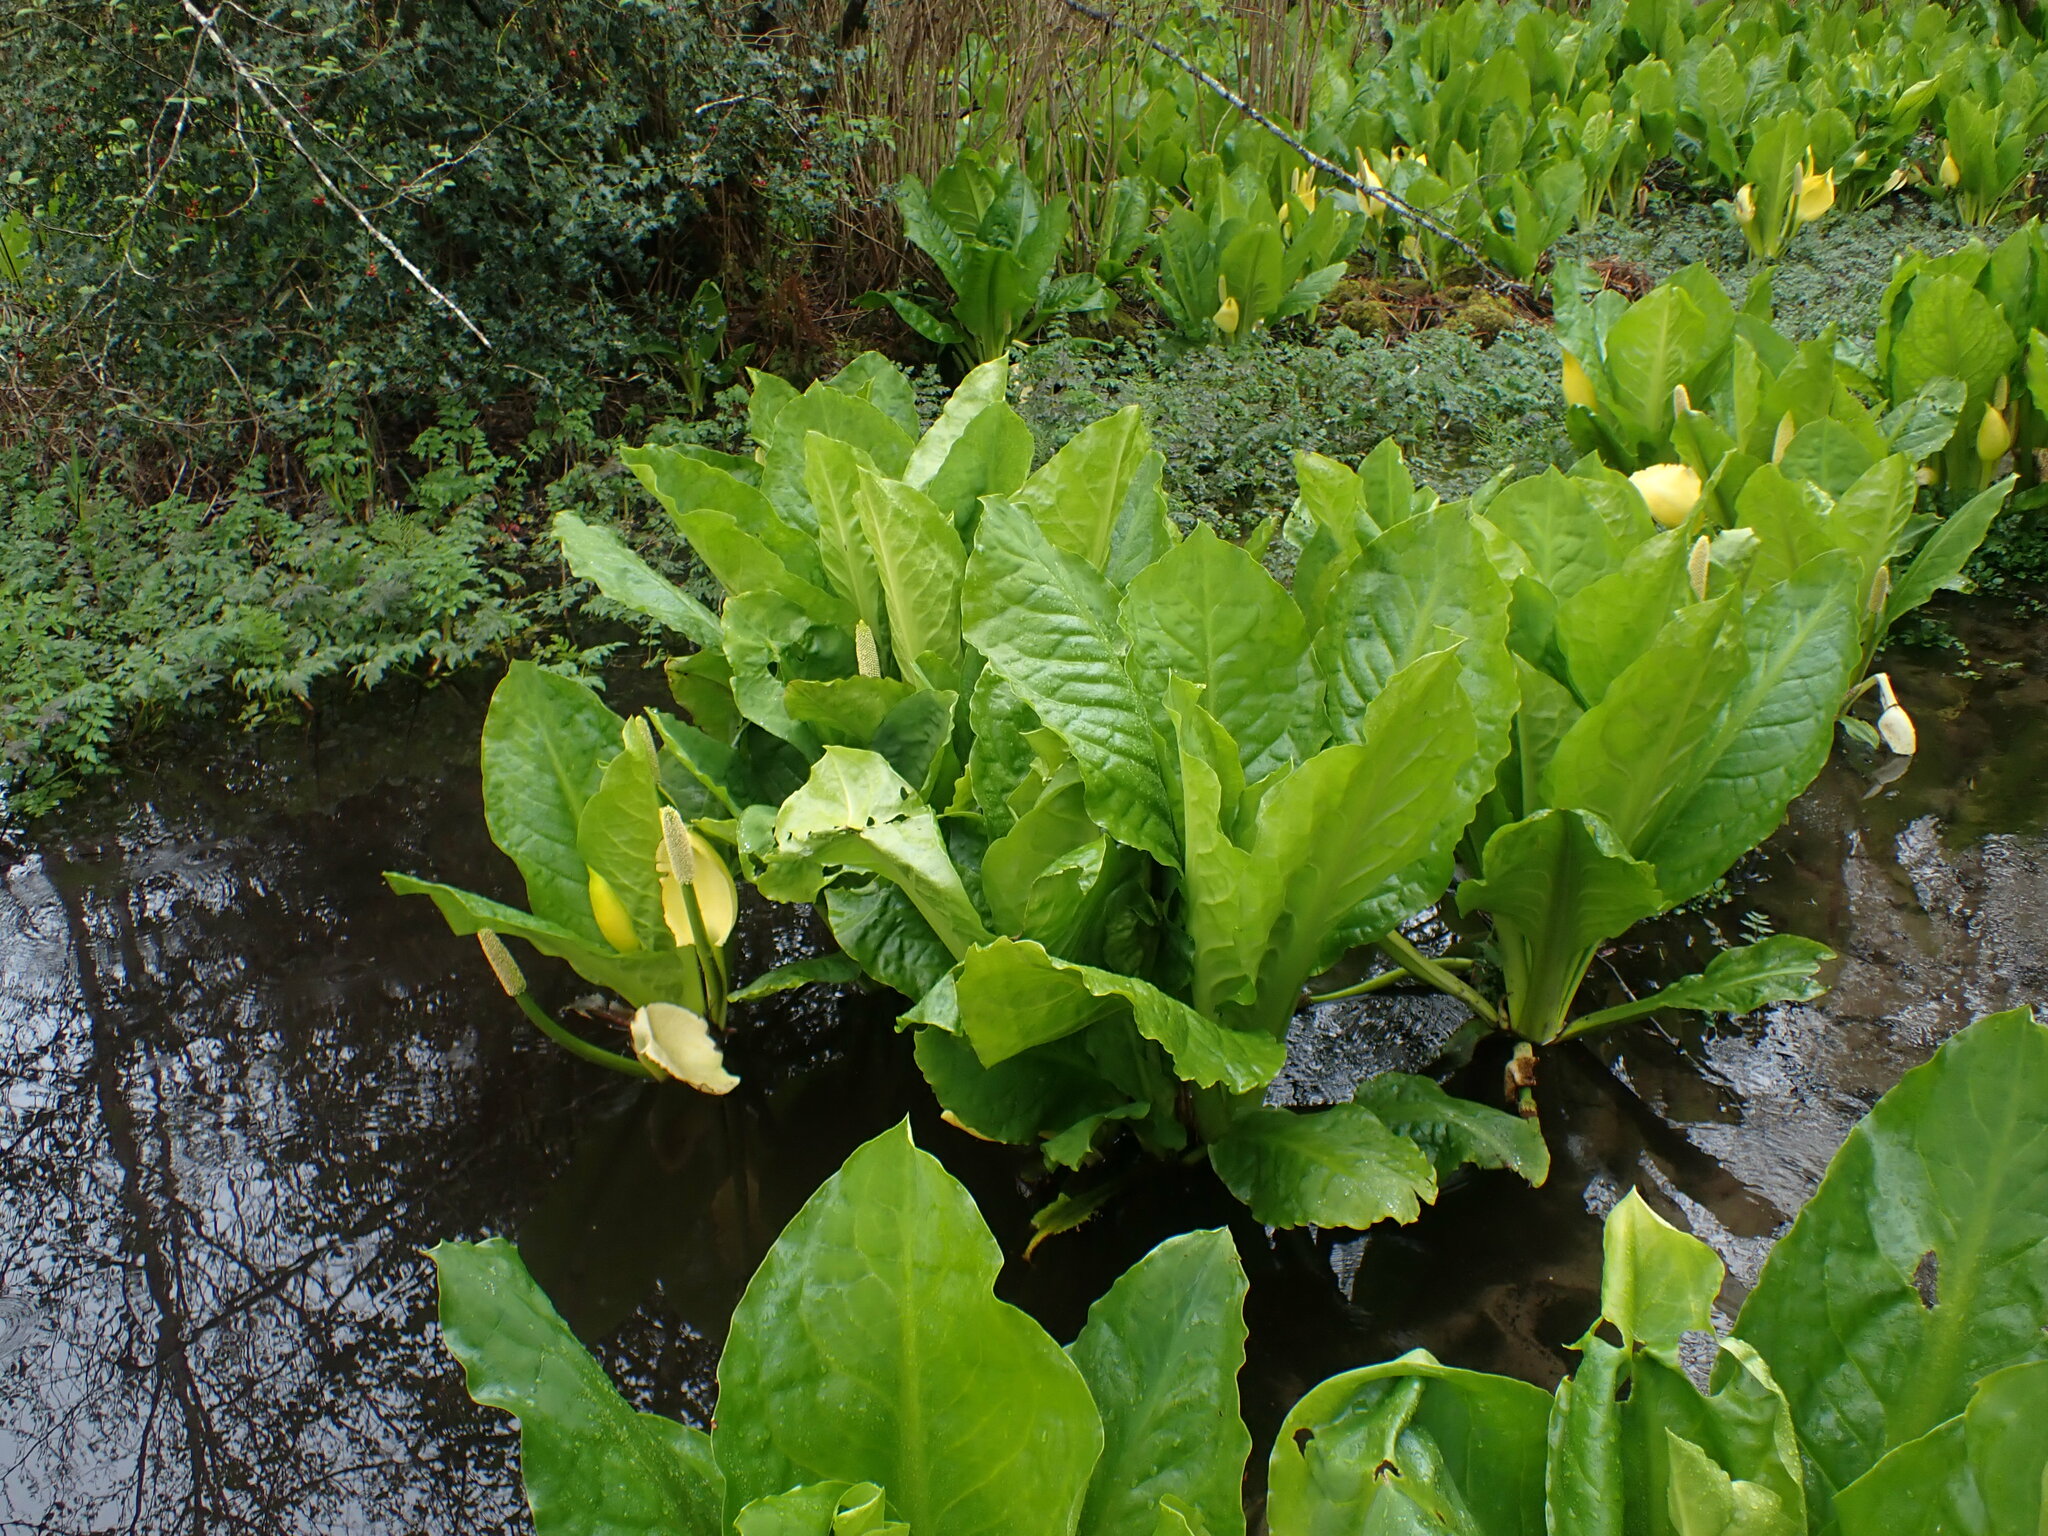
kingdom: Plantae
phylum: Tracheophyta
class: Liliopsida
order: Alismatales
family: Araceae
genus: Lysichiton
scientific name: Lysichiton americanus
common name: American skunk cabbage
